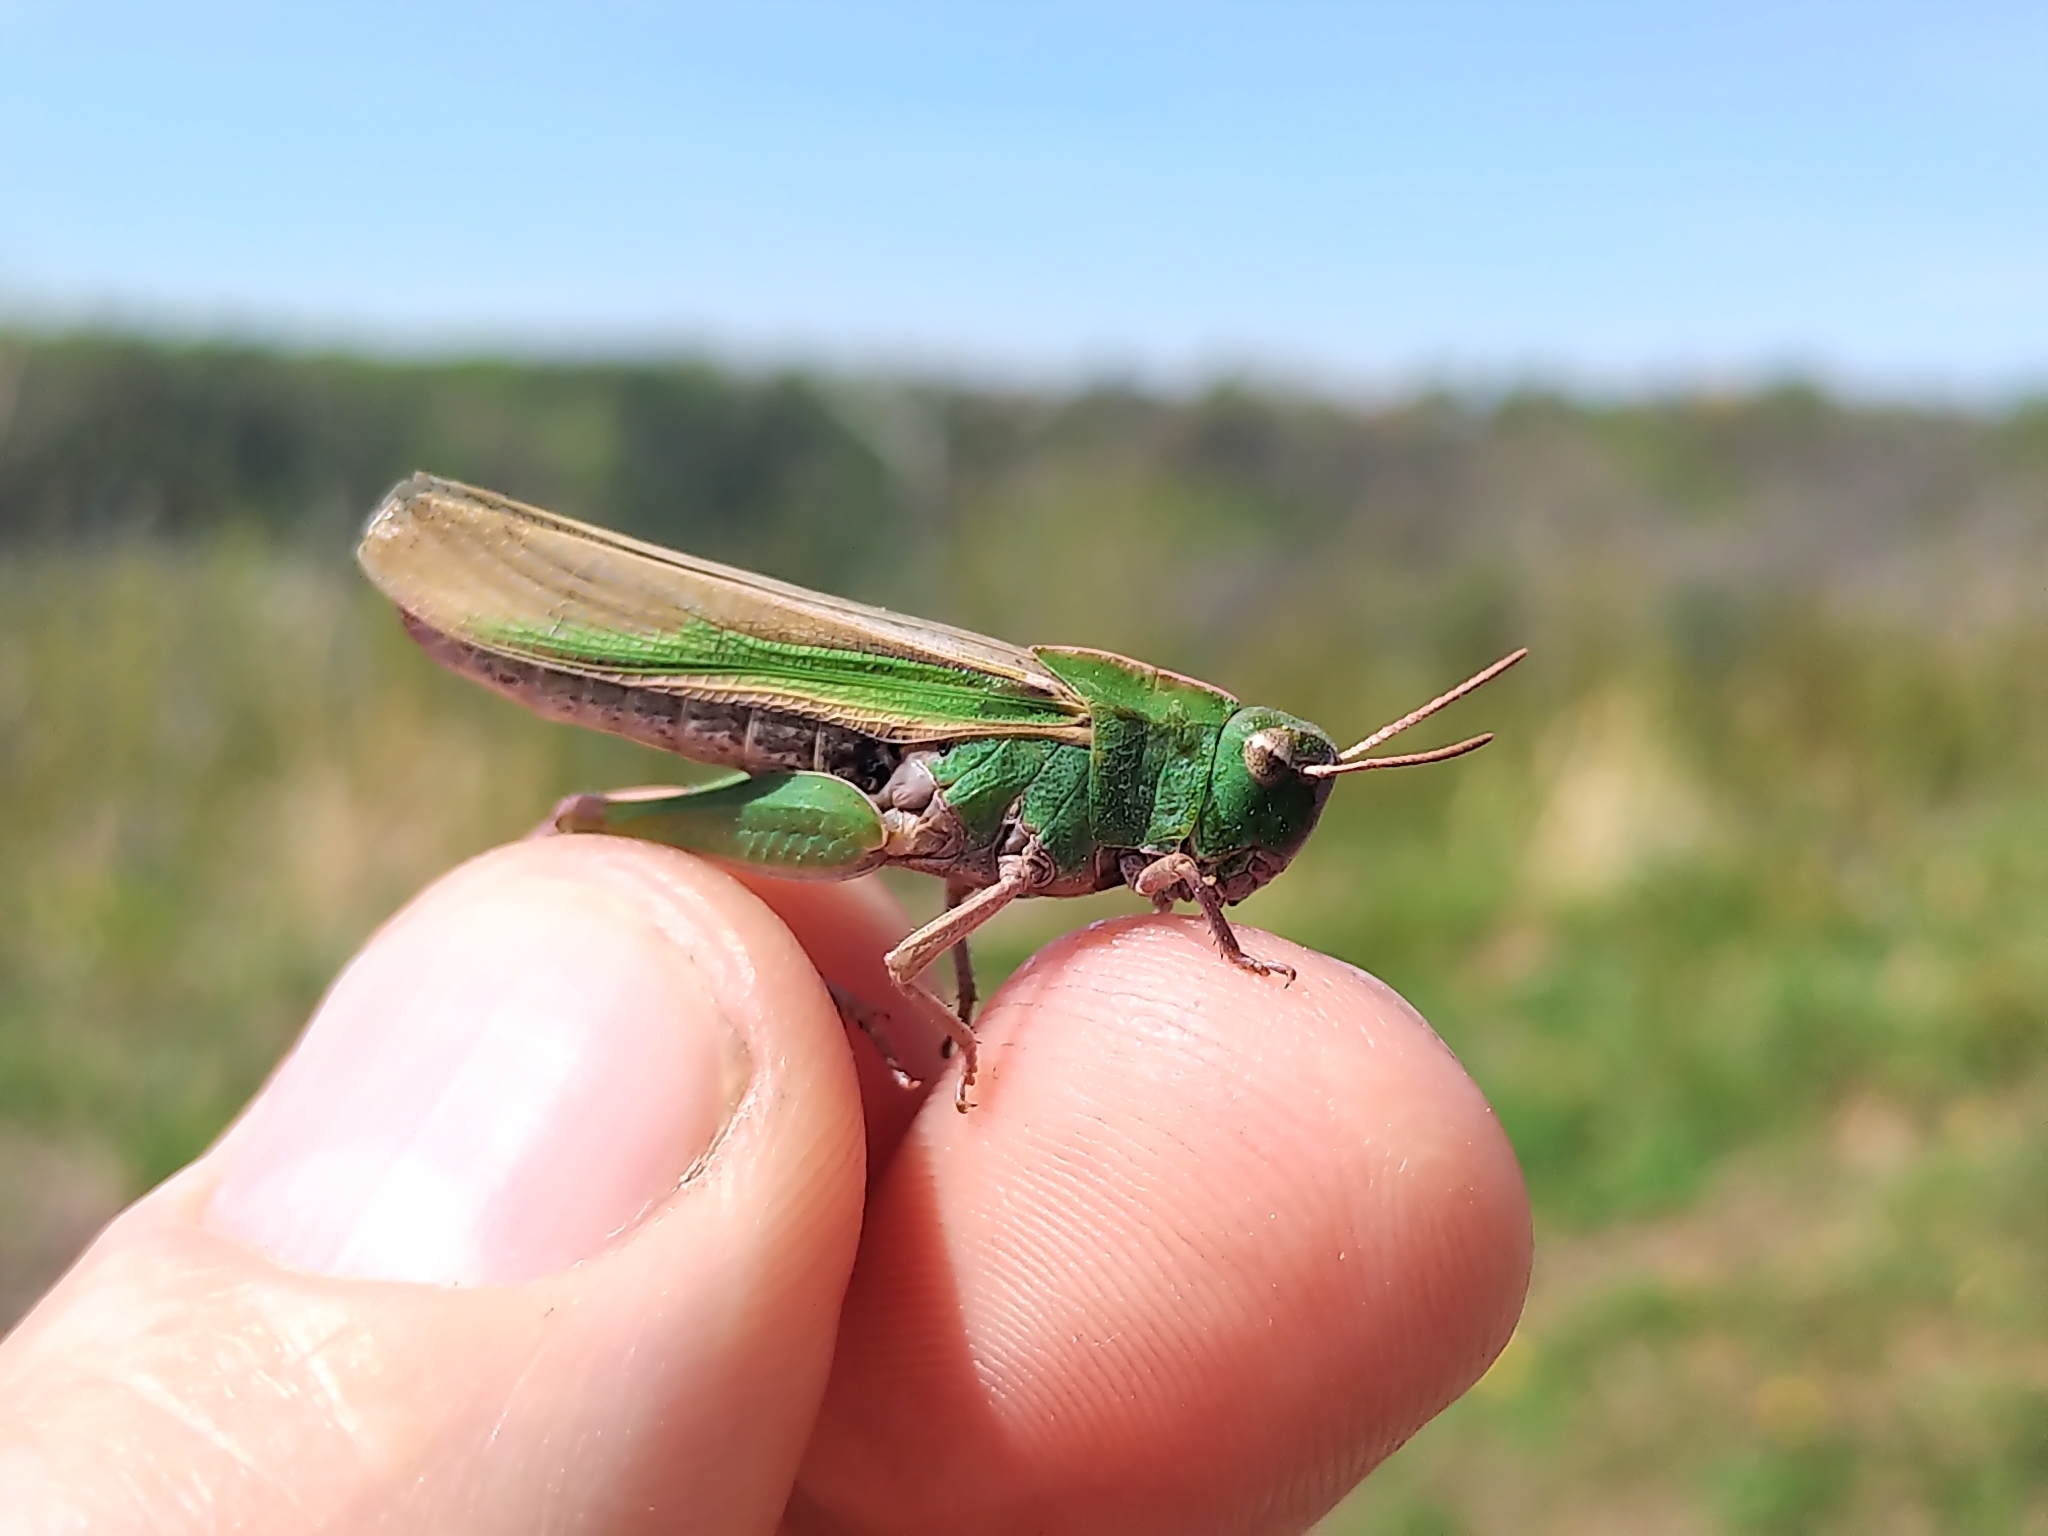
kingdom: Animalia
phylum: Arthropoda
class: Insecta
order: Orthoptera
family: Acrididae
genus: Chortophaga
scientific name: Chortophaga viridifasciata
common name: Green-striped grasshopper
